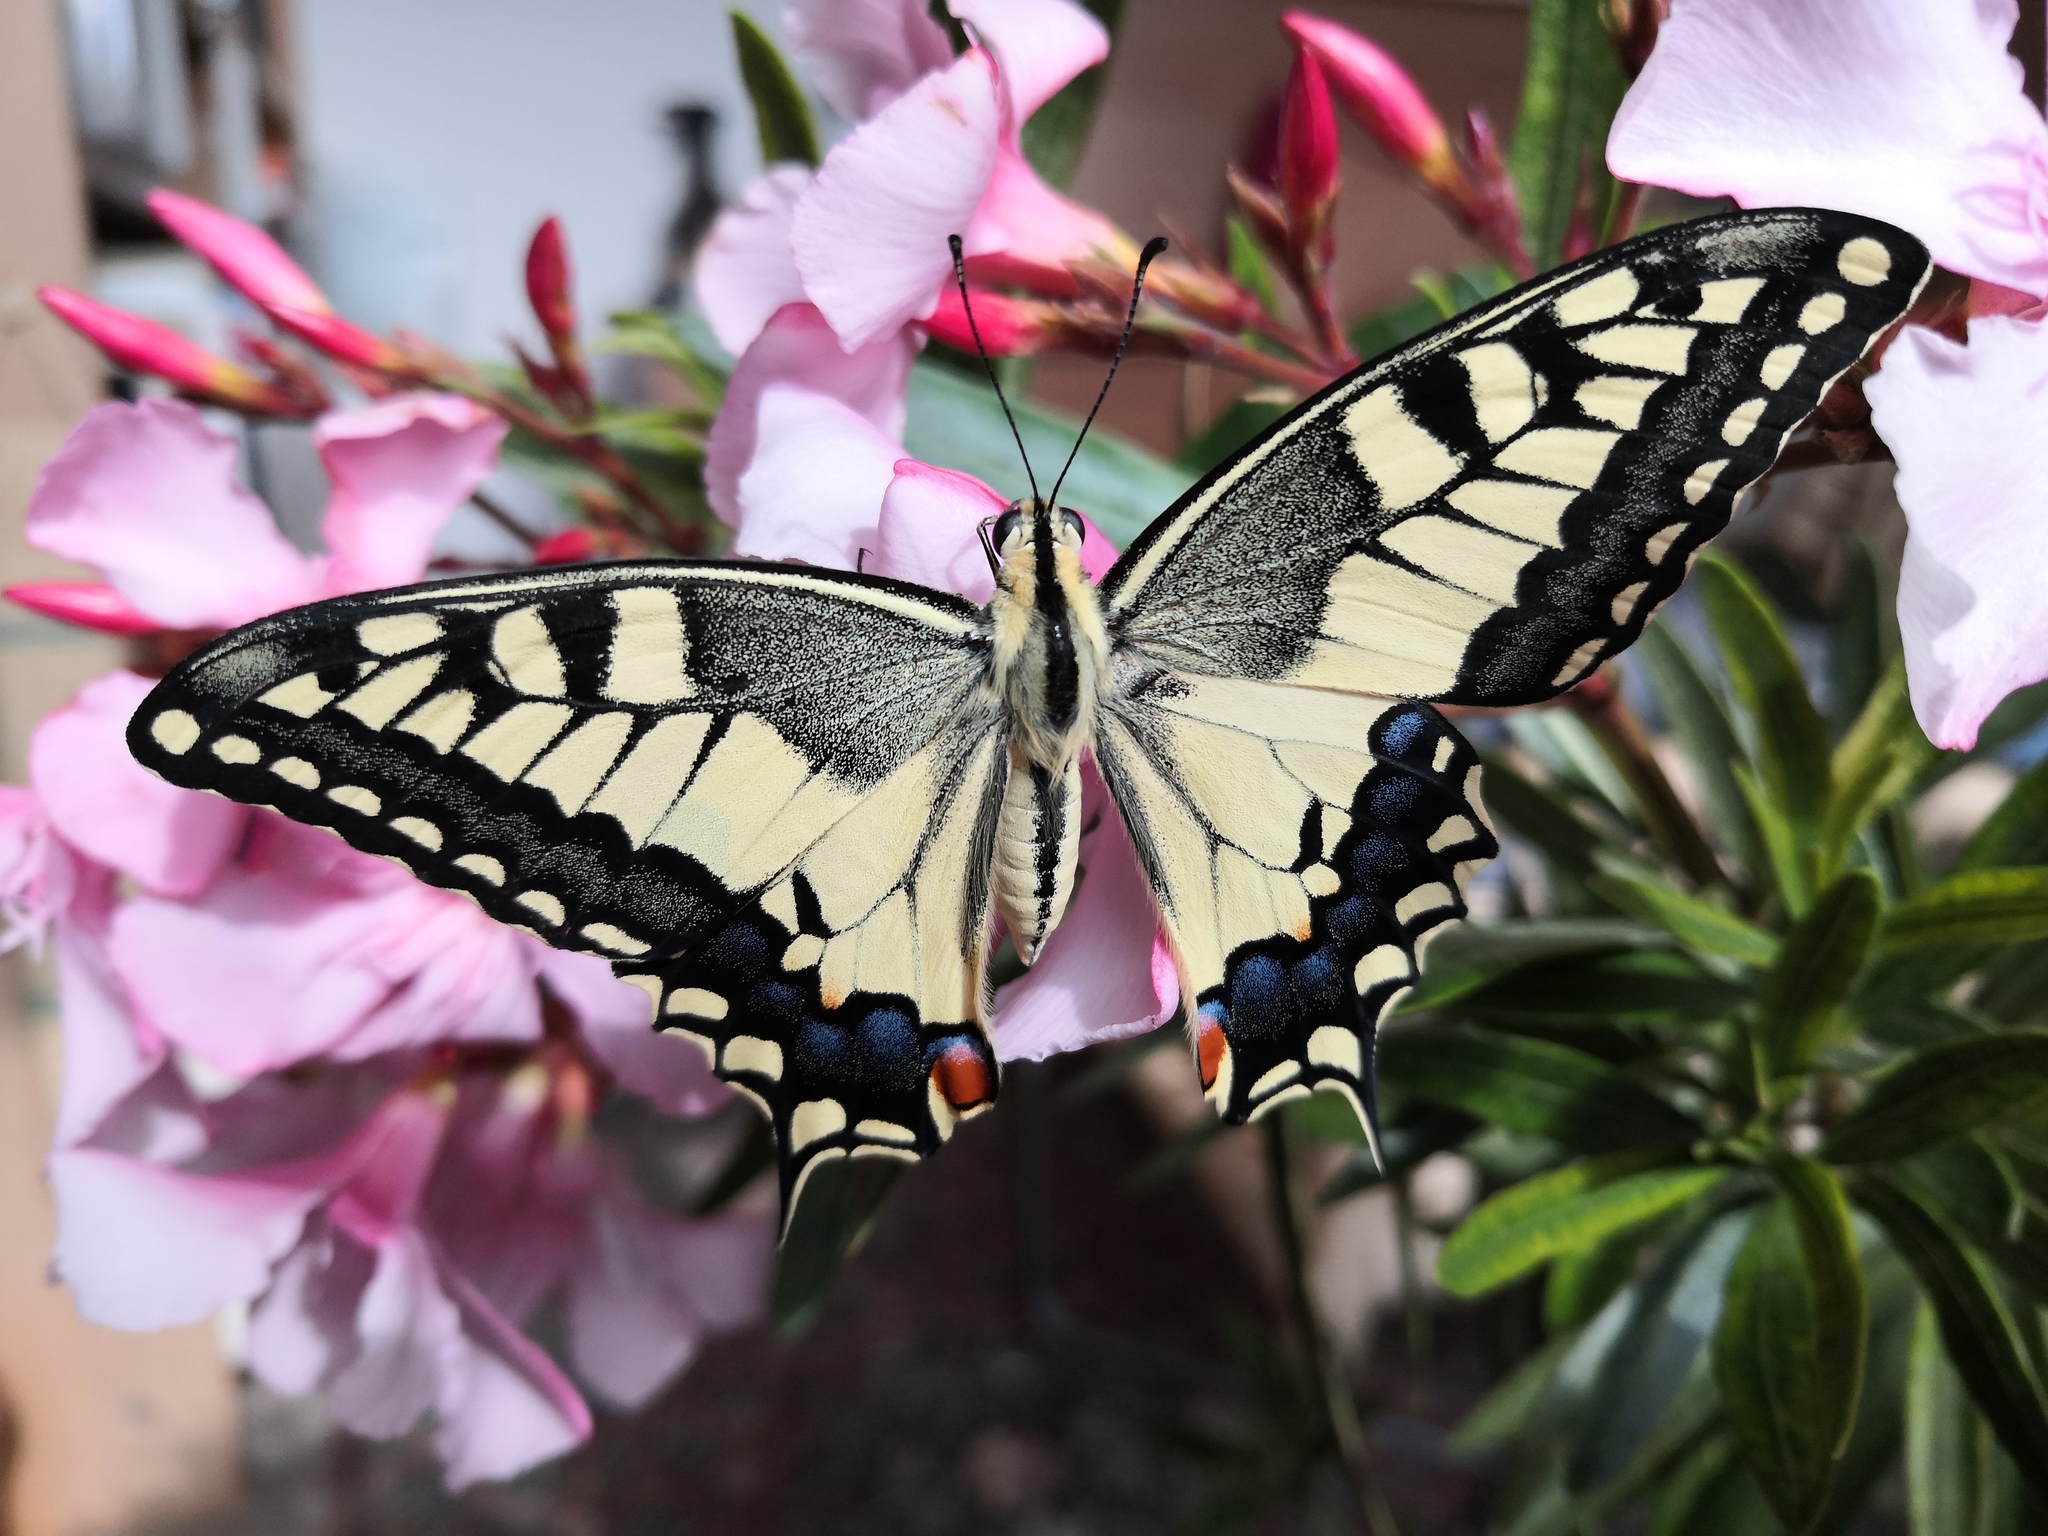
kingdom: Animalia
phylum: Arthropoda
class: Insecta
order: Lepidoptera
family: Papilionidae
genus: Papilio
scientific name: Papilio machaon
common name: Swallowtail
